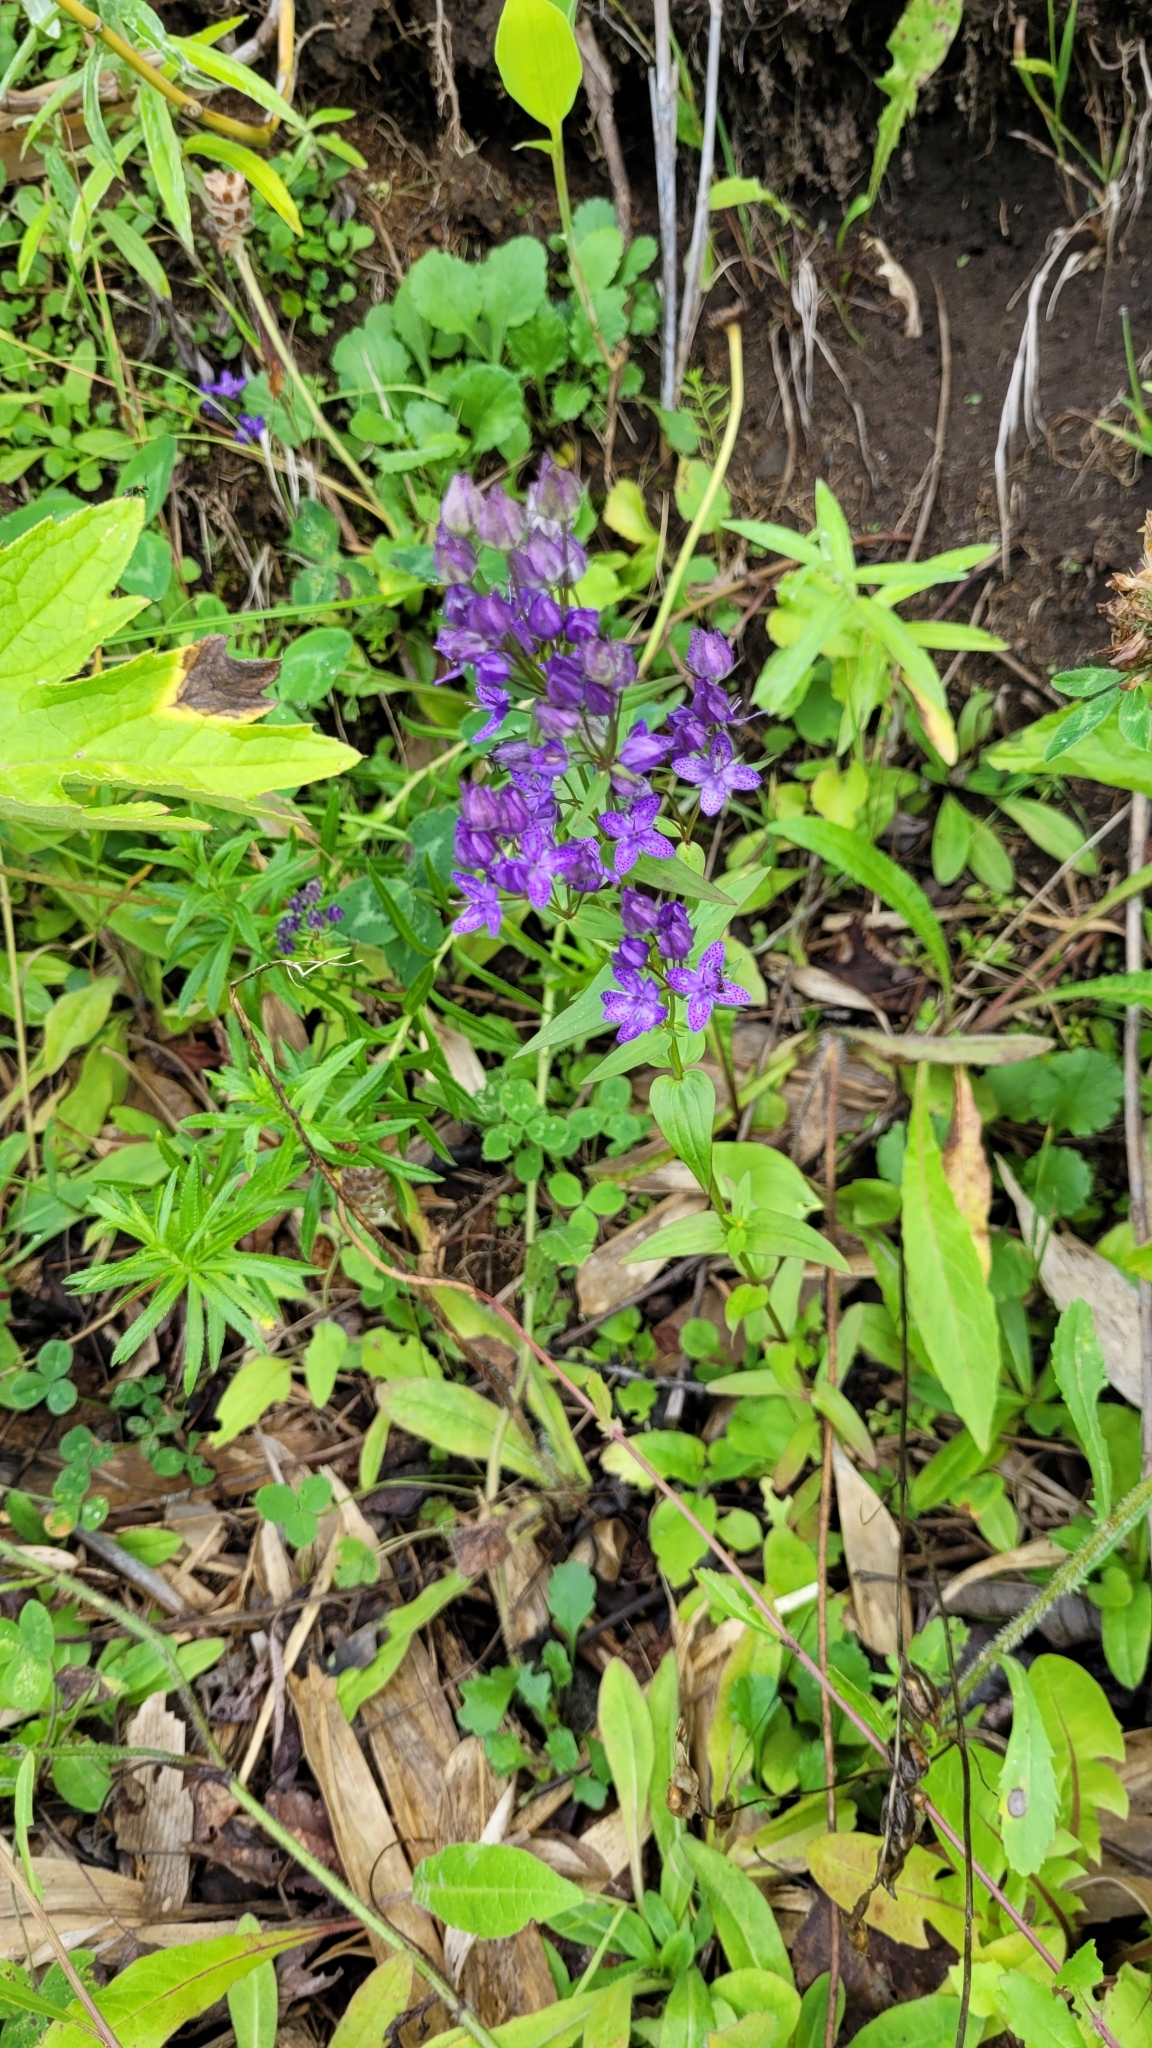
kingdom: Plantae
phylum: Tracheophyta
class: Magnoliopsida
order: Gentianales
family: Gentianaceae
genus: Swertia
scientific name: Swertia tetrapetala
